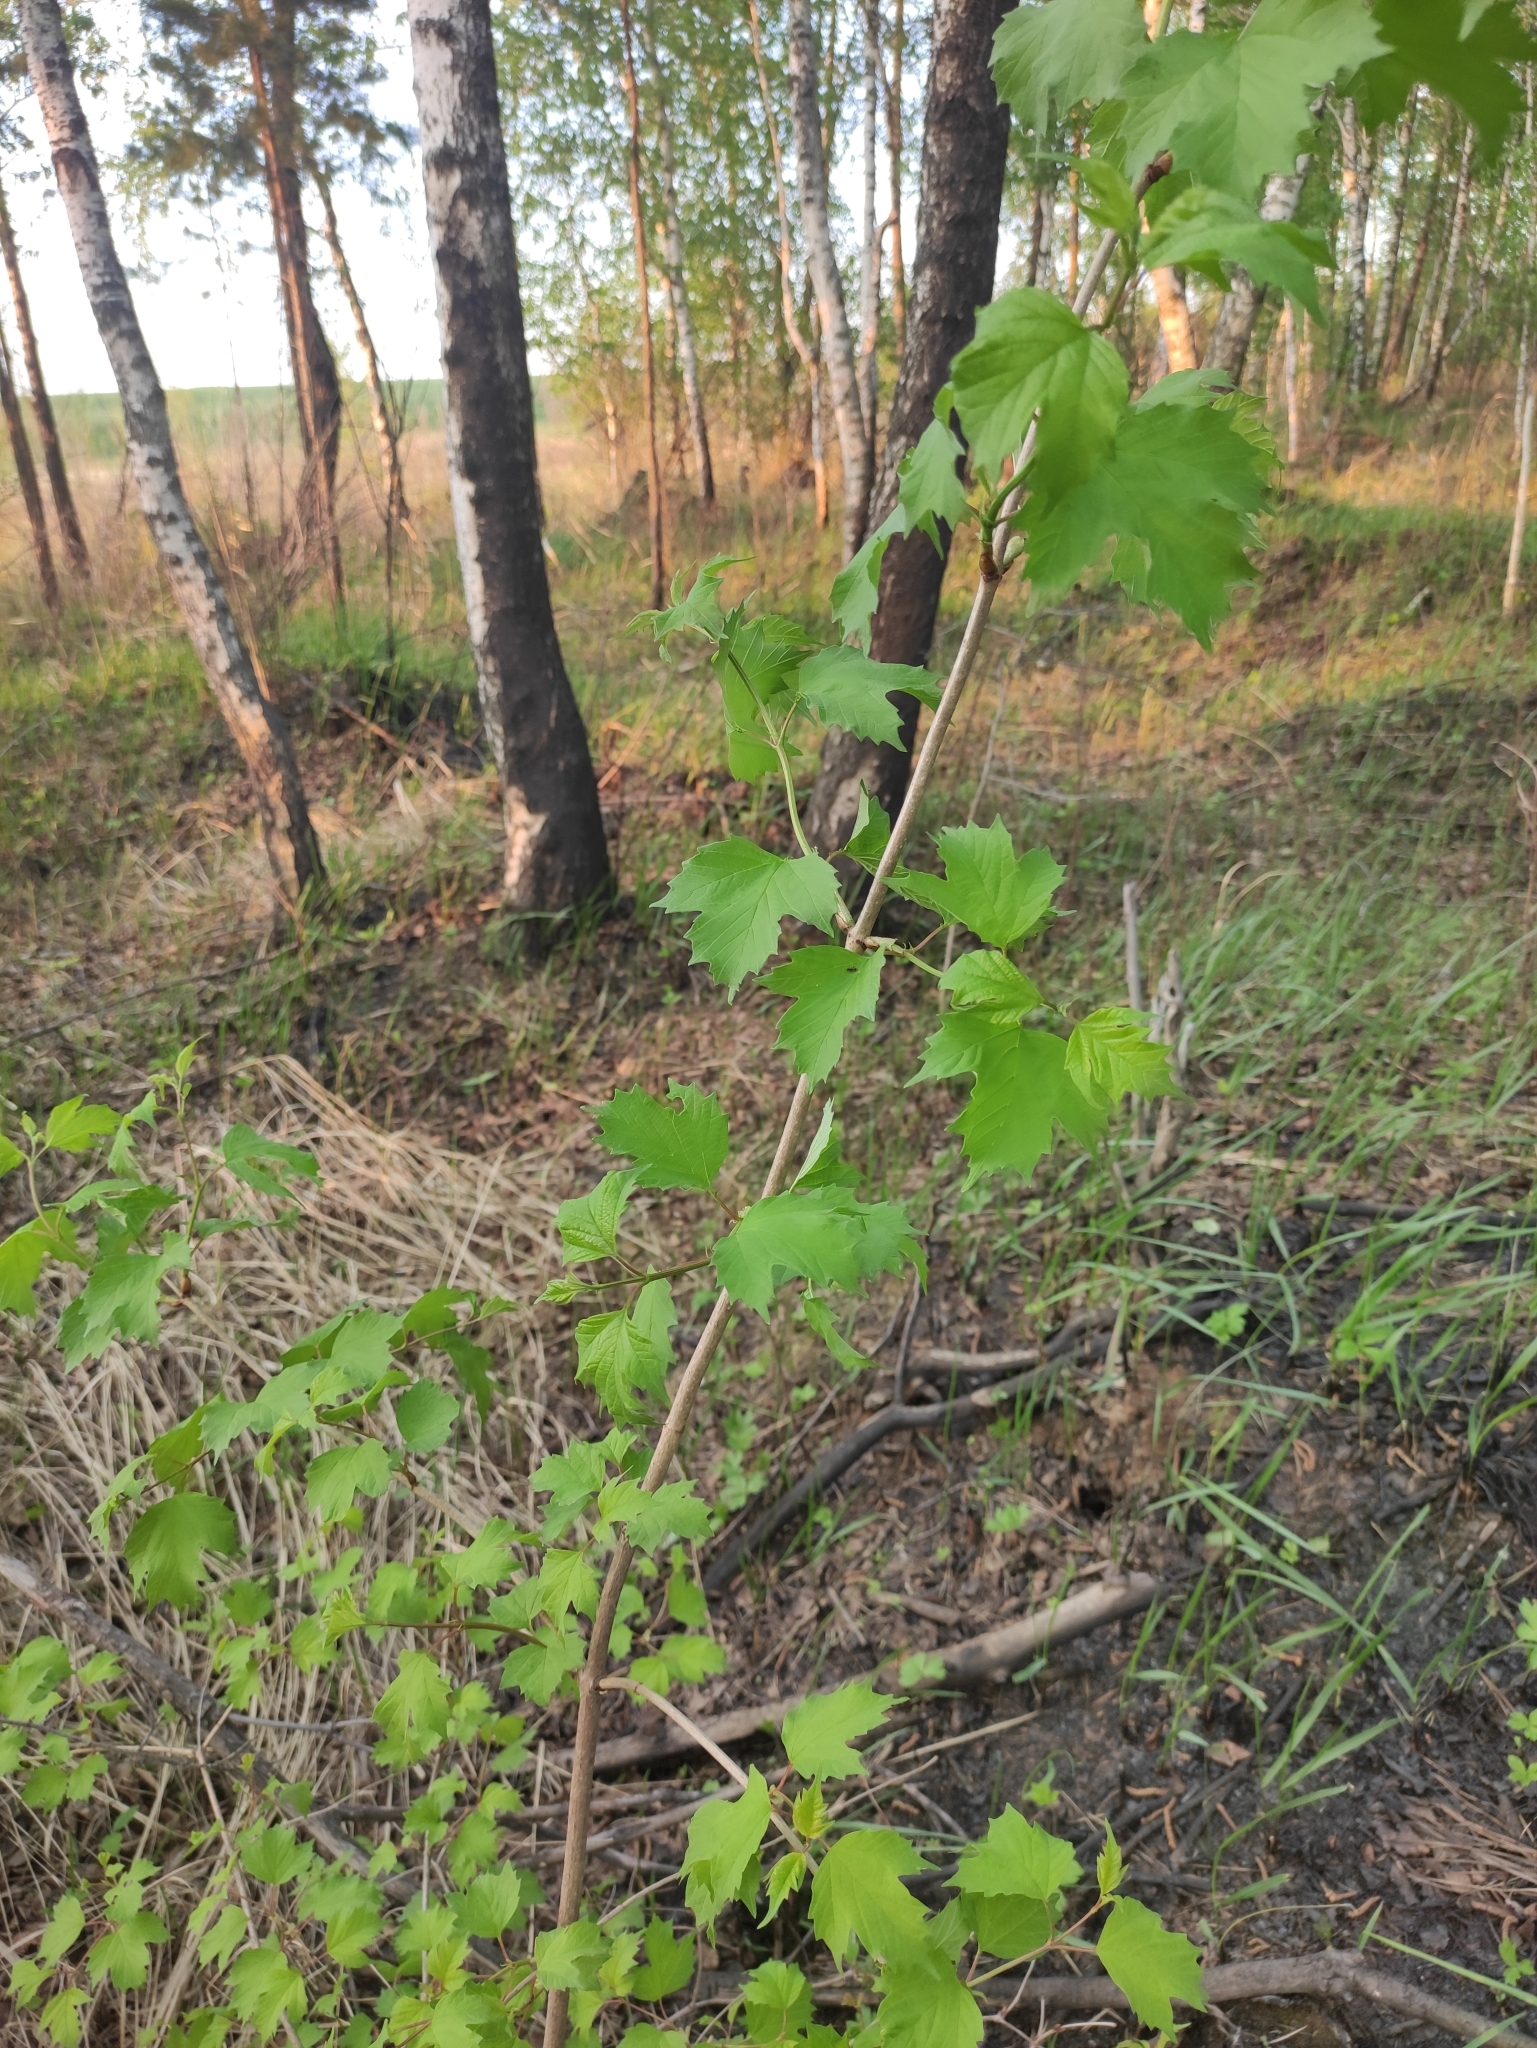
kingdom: Plantae
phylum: Tracheophyta
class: Magnoliopsida
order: Dipsacales
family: Viburnaceae
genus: Viburnum
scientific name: Viburnum opulus
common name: Guelder-rose
